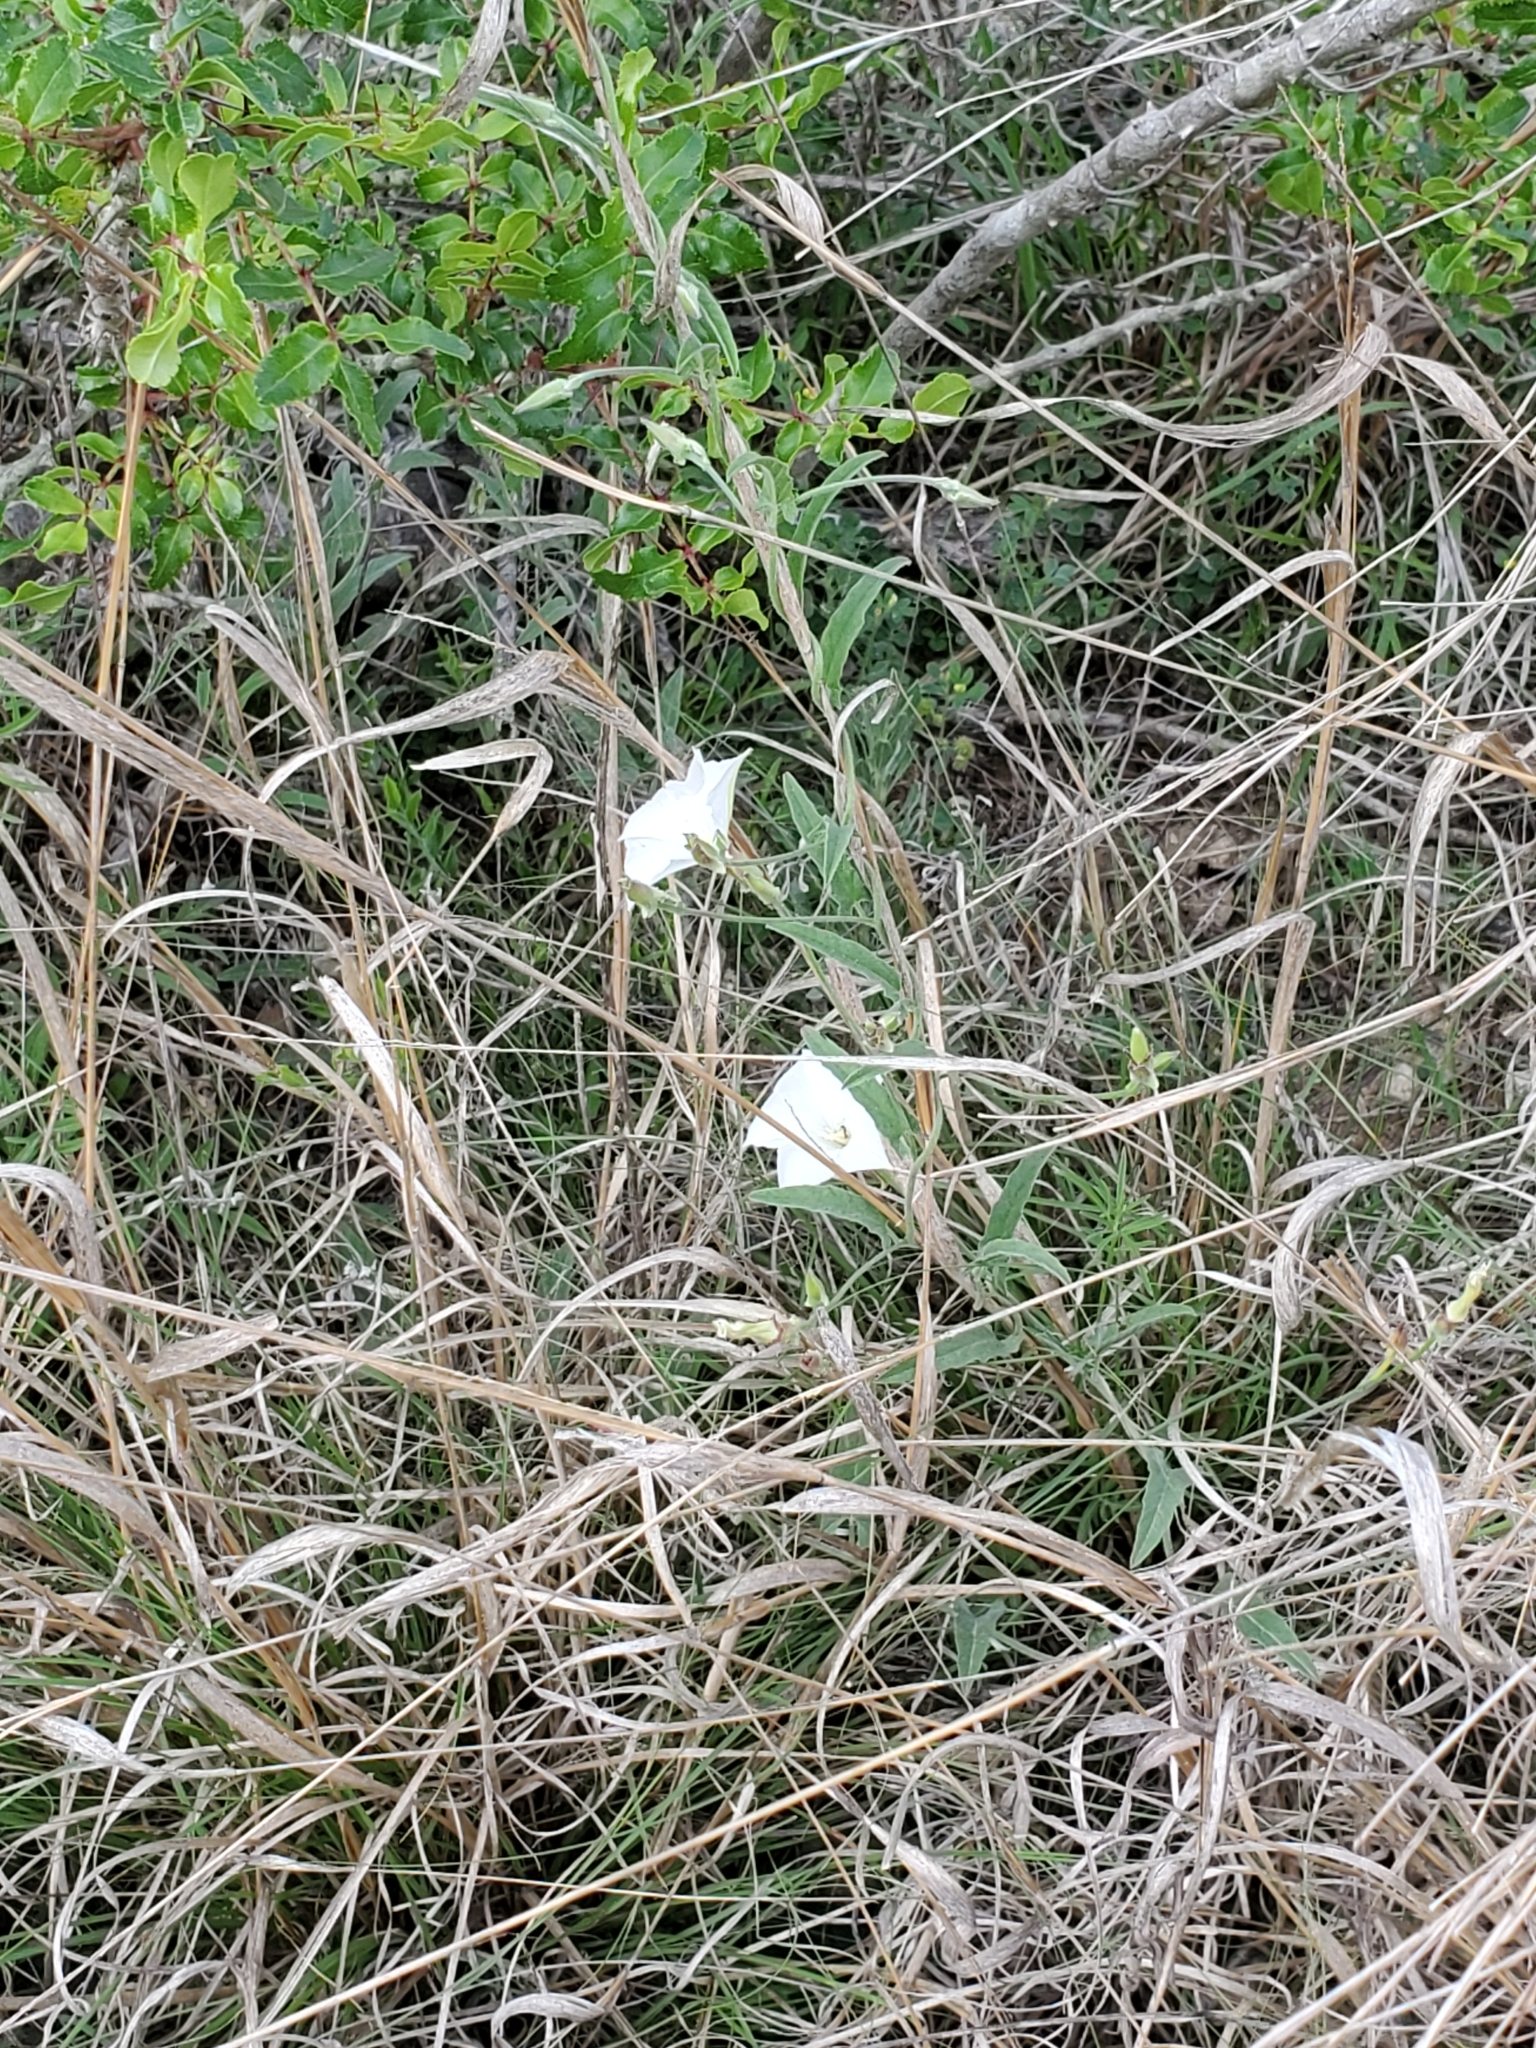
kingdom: Plantae
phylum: Tracheophyta
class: Magnoliopsida
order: Solanales
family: Convolvulaceae
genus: Convolvulus
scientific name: Convolvulus equitans
